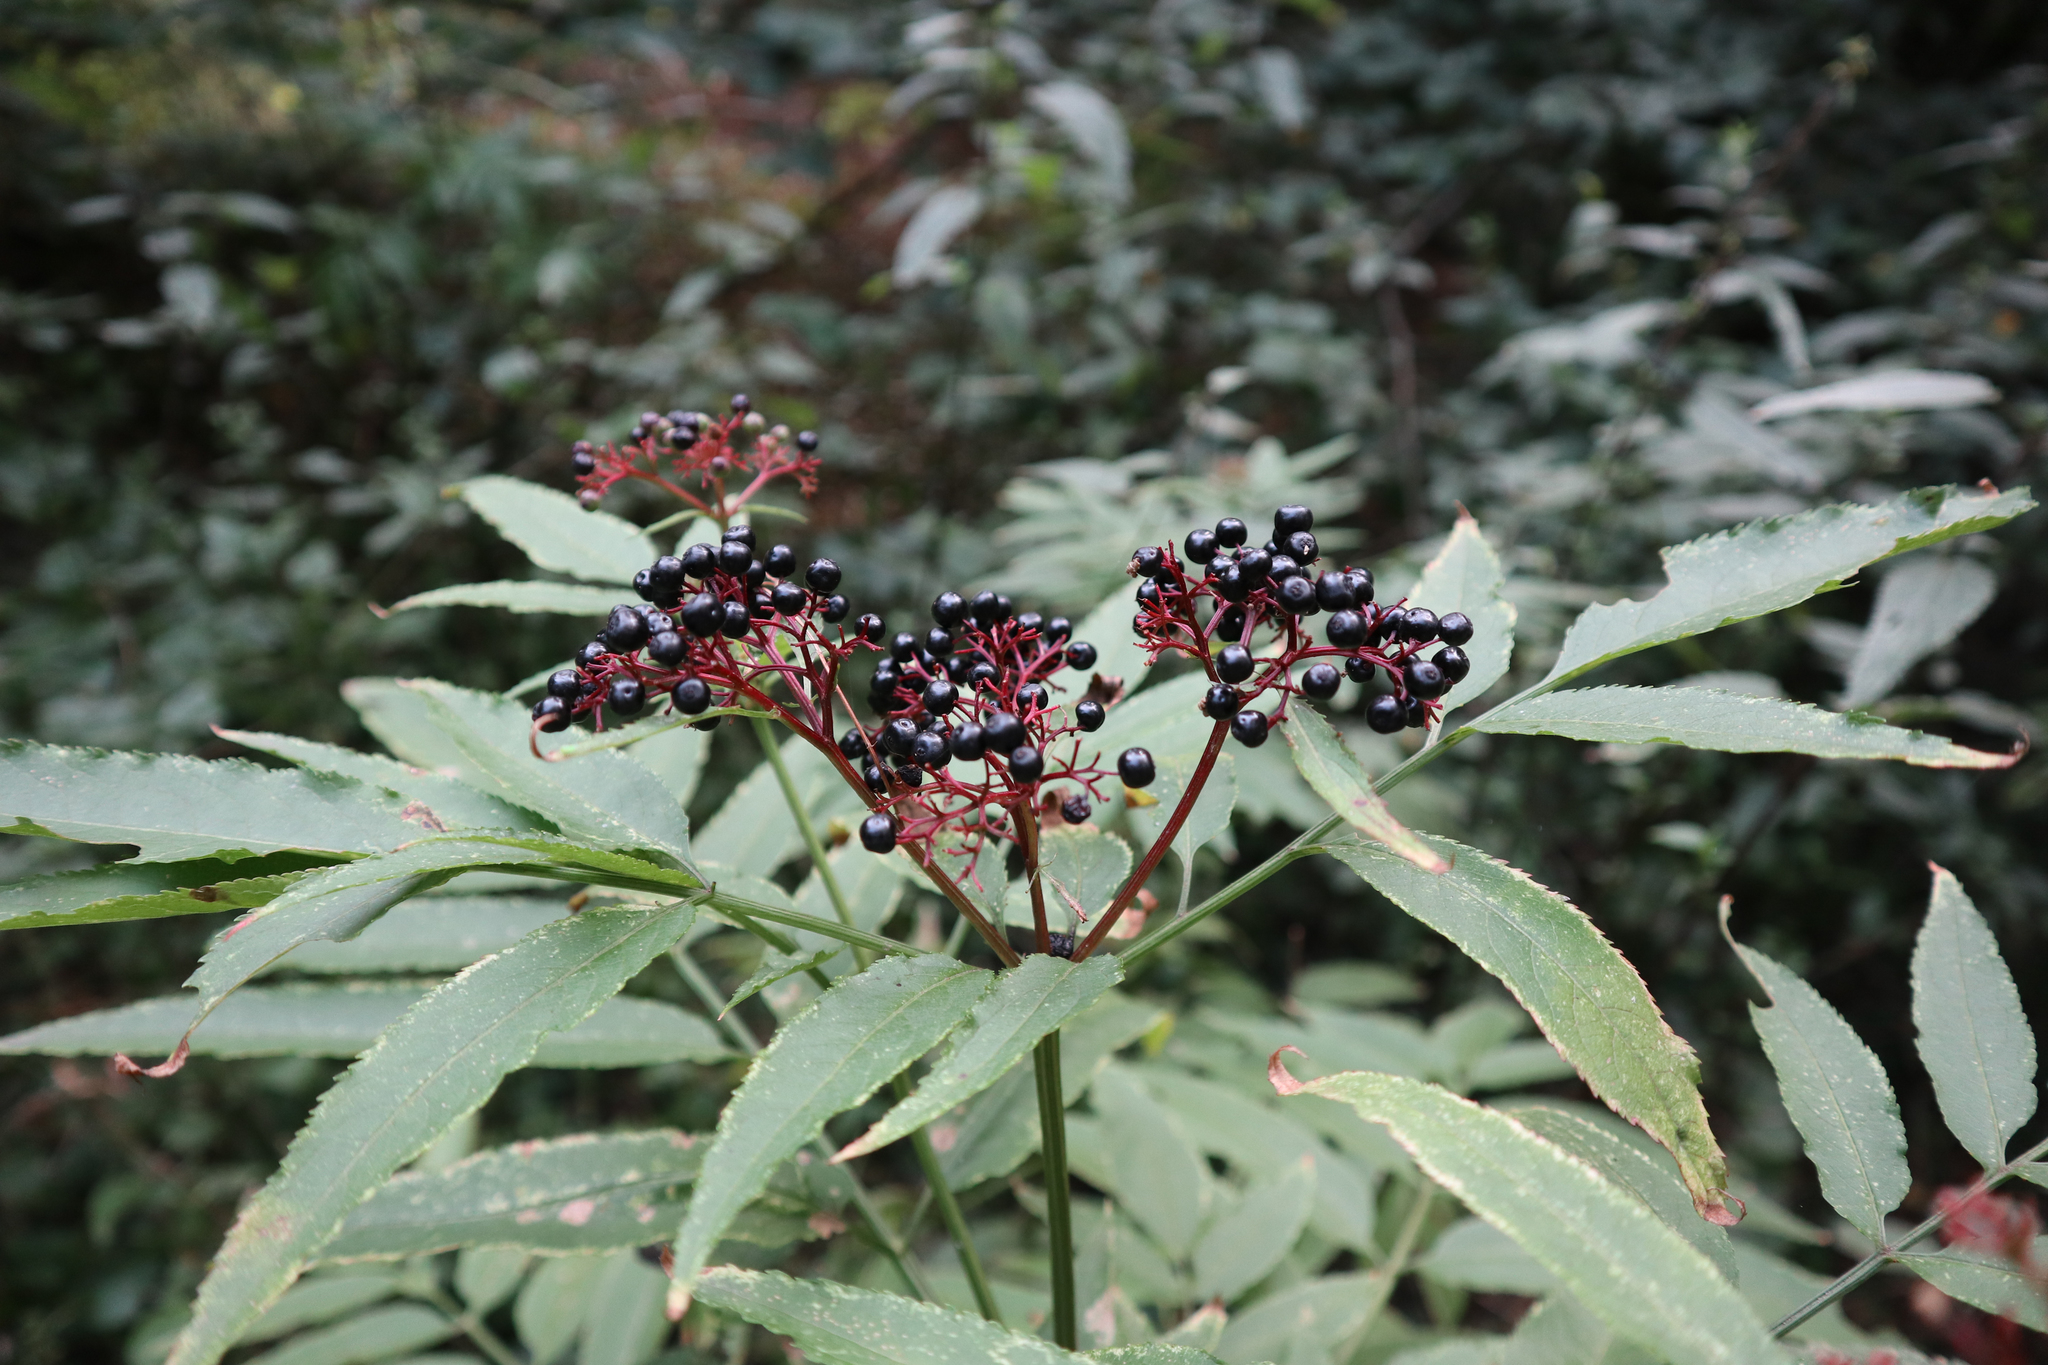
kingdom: Plantae
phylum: Tracheophyta
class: Magnoliopsida
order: Dipsacales
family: Viburnaceae
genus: Sambucus
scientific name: Sambucus ebulus
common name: Dwarf elder
